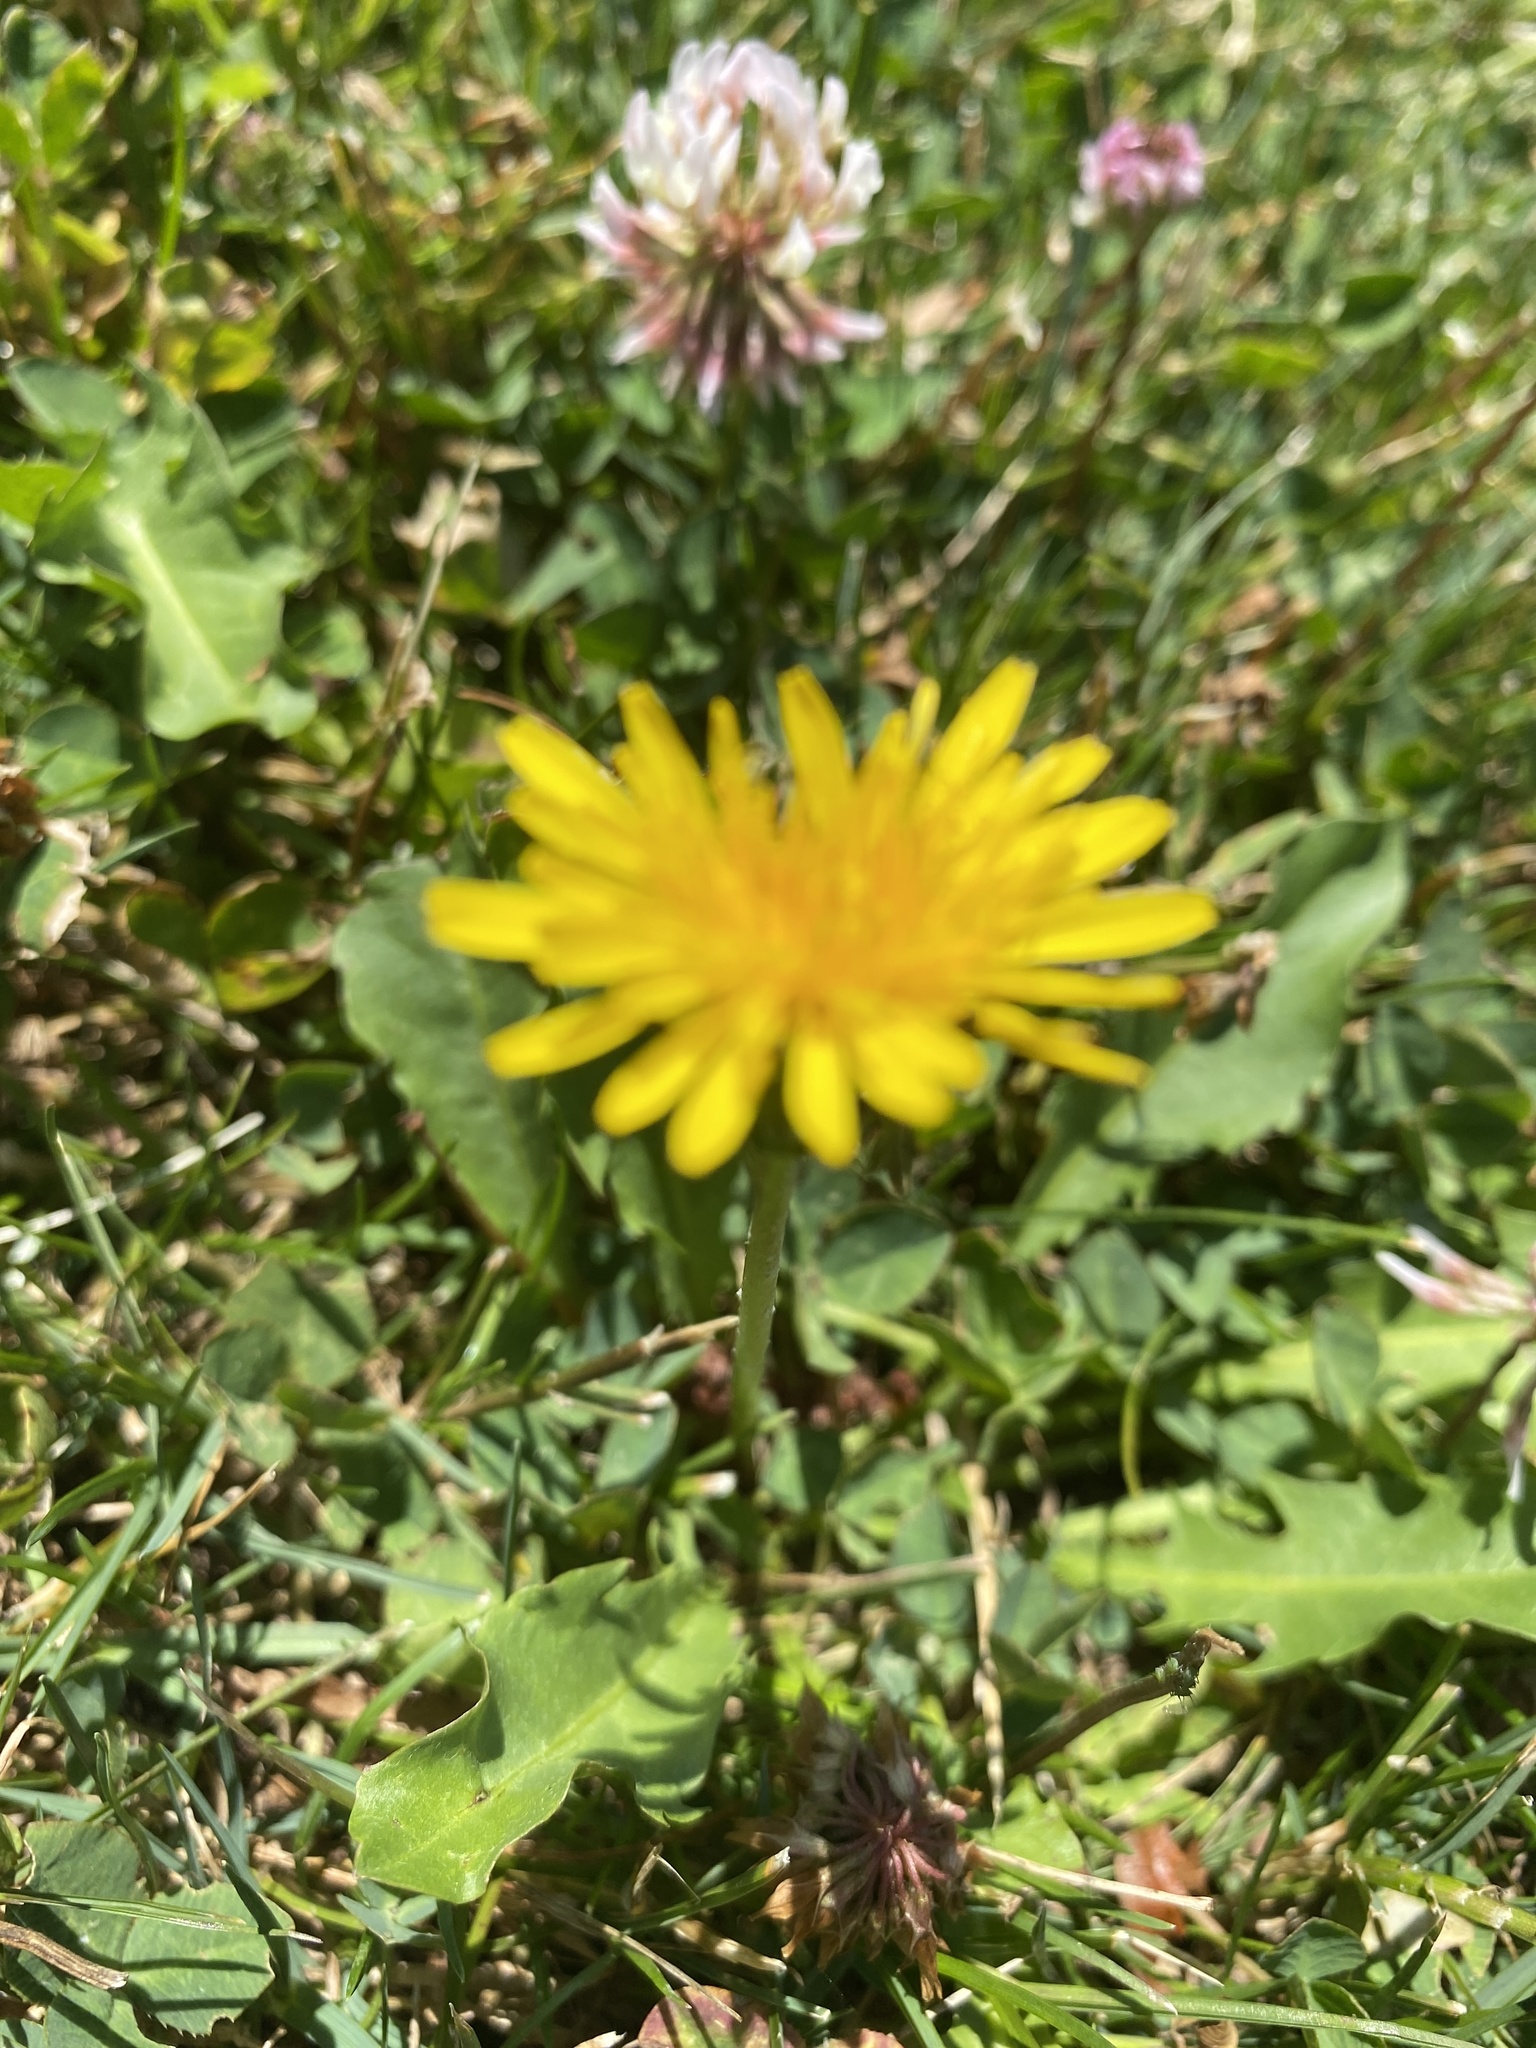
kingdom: Plantae
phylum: Tracheophyta
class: Magnoliopsida
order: Asterales
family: Asteraceae
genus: Taraxacum
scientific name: Taraxacum officinale
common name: Common dandelion
